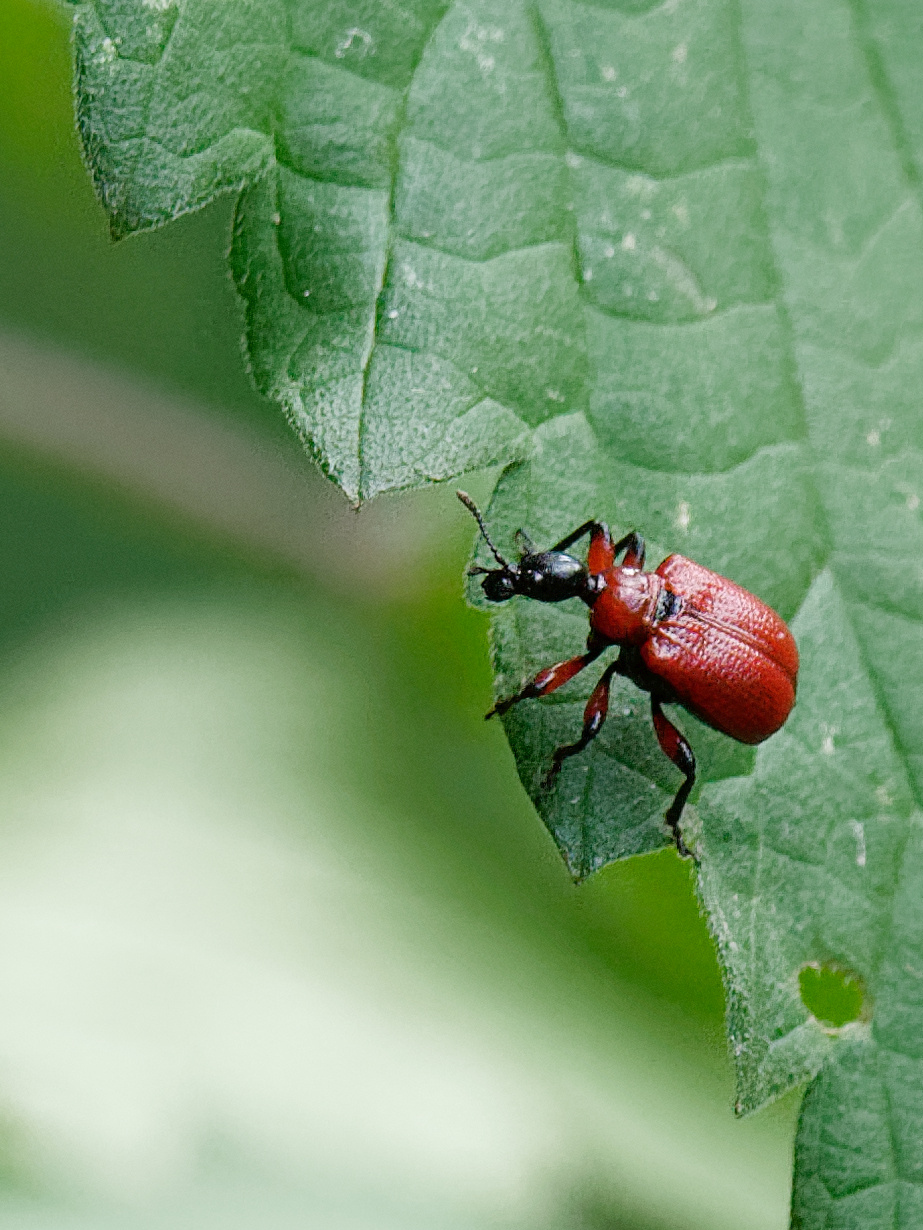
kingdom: Animalia
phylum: Arthropoda
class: Insecta
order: Coleoptera
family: Attelabidae
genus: Apoderus
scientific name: Apoderus coryli
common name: Hazel leaf roller
